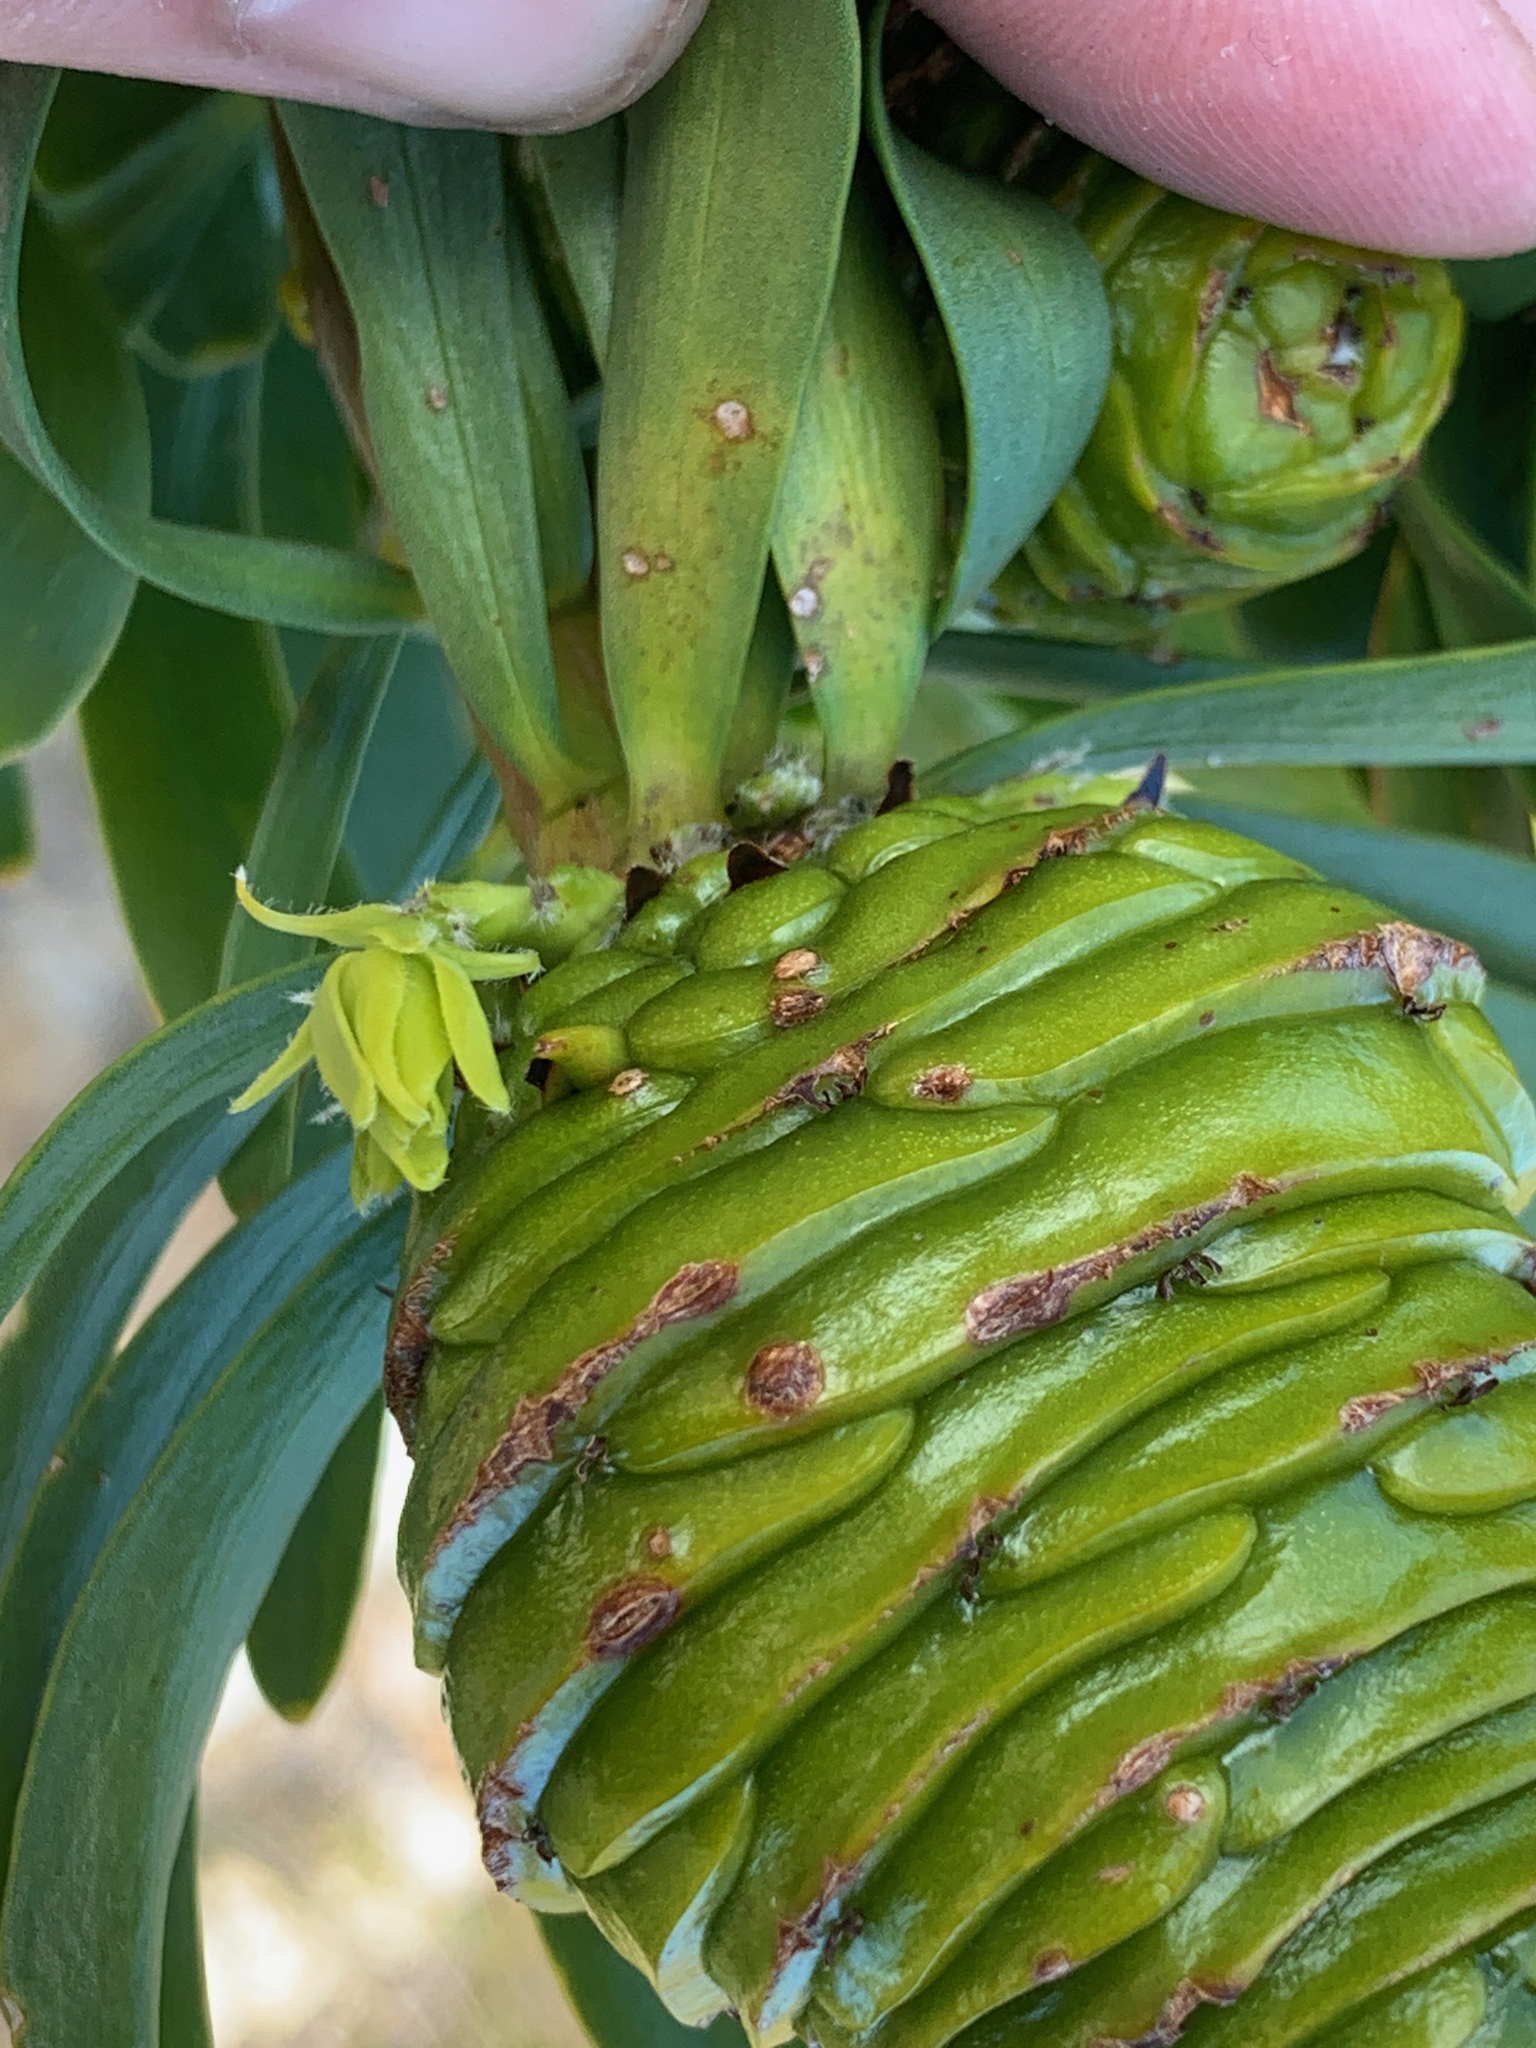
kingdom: Plantae
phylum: Tracheophyta
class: Magnoliopsida
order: Proteales
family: Proteaceae
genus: Leucadendron
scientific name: Leucadendron platyspermum
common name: Plate-seed conebush
